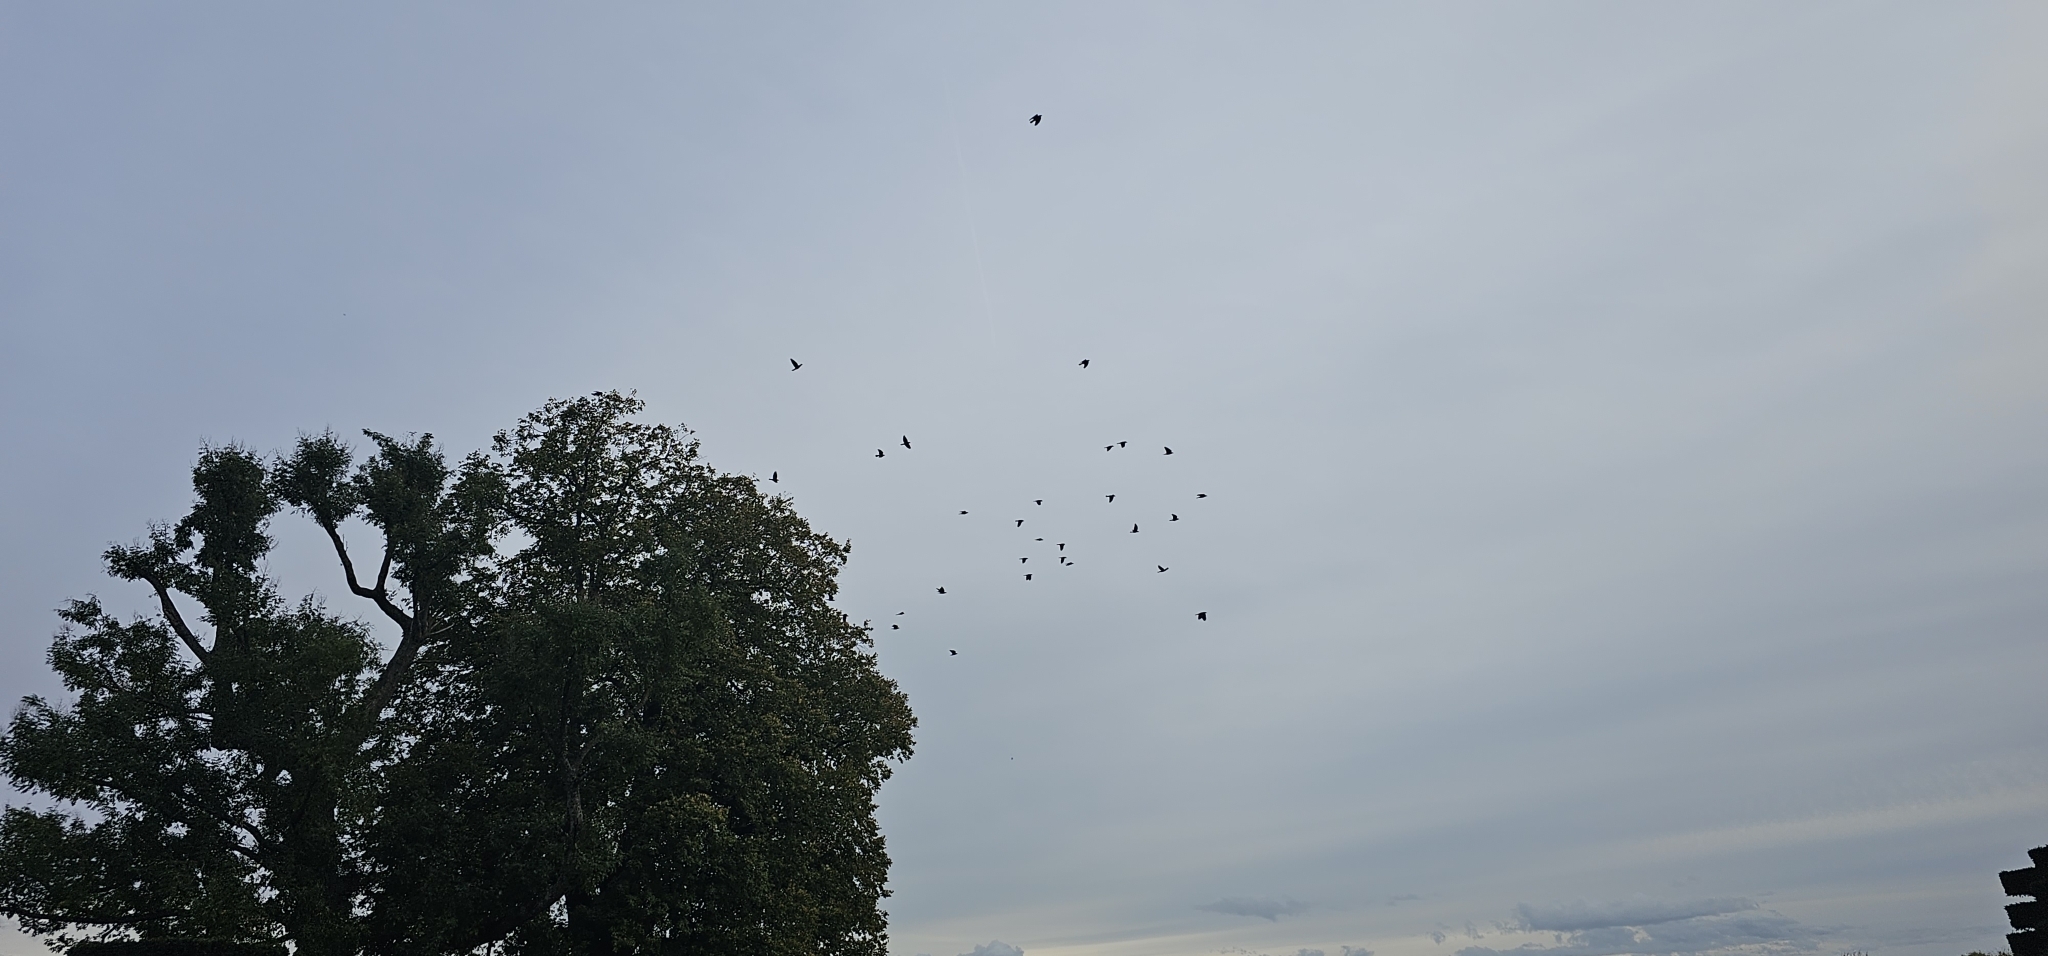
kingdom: Animalia
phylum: Chordata
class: Aves
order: Passeriformes
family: Corvidae
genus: Coloeus
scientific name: Coloeus monedula
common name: Western jackdaw
